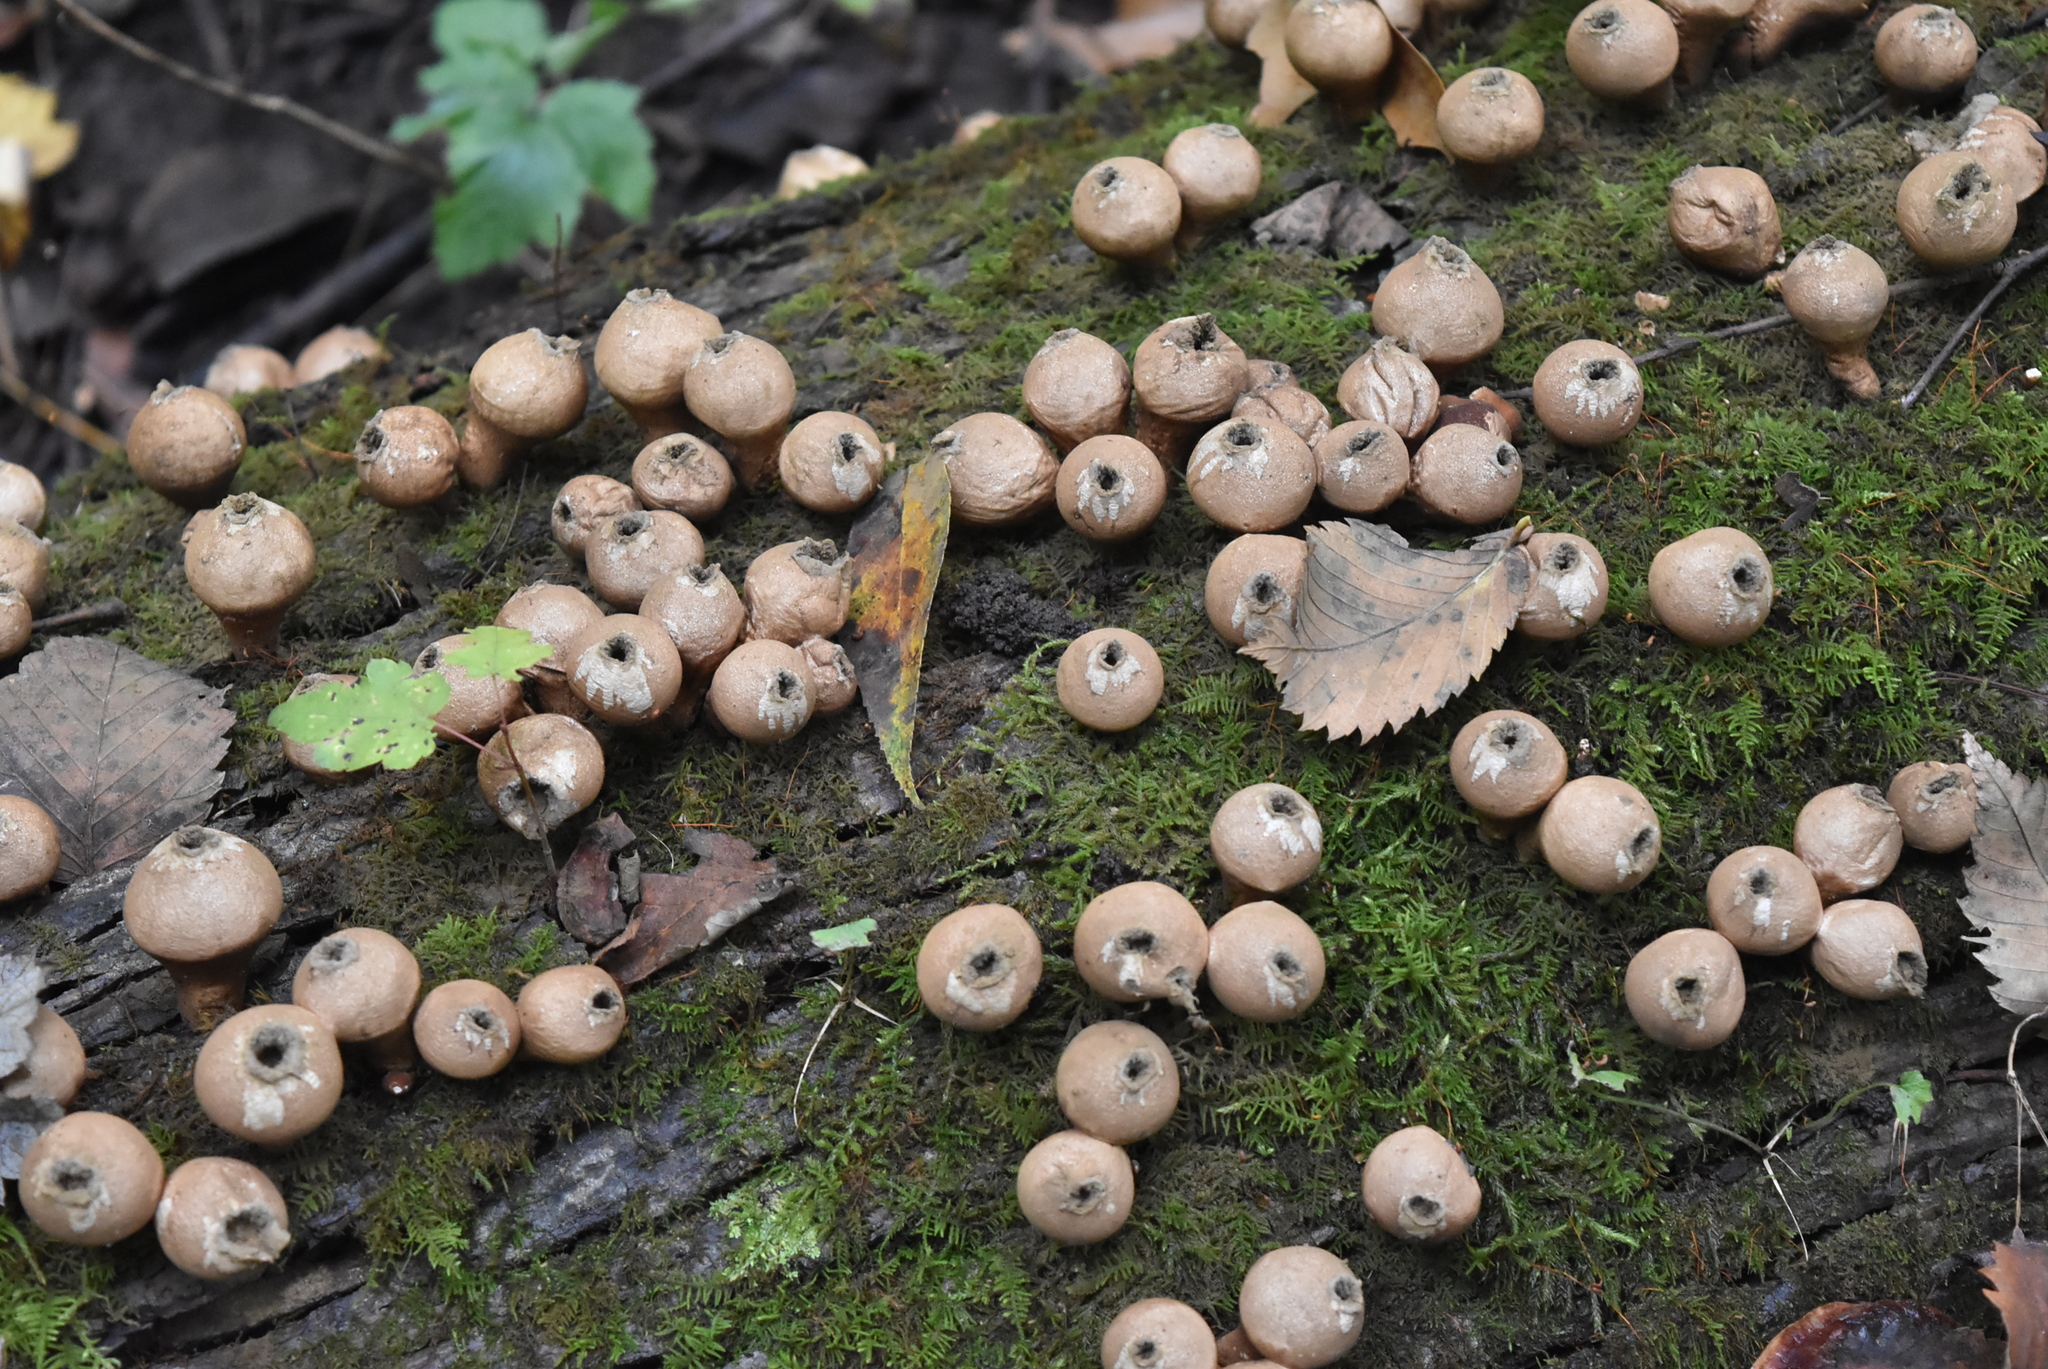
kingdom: Fungi
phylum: Basidiomycota
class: Agaricomycetes
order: Agaricales
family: Lycoperdaceae
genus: Apioperdon
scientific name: Apioperdon pyriforme
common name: Pear-shaped puffball
